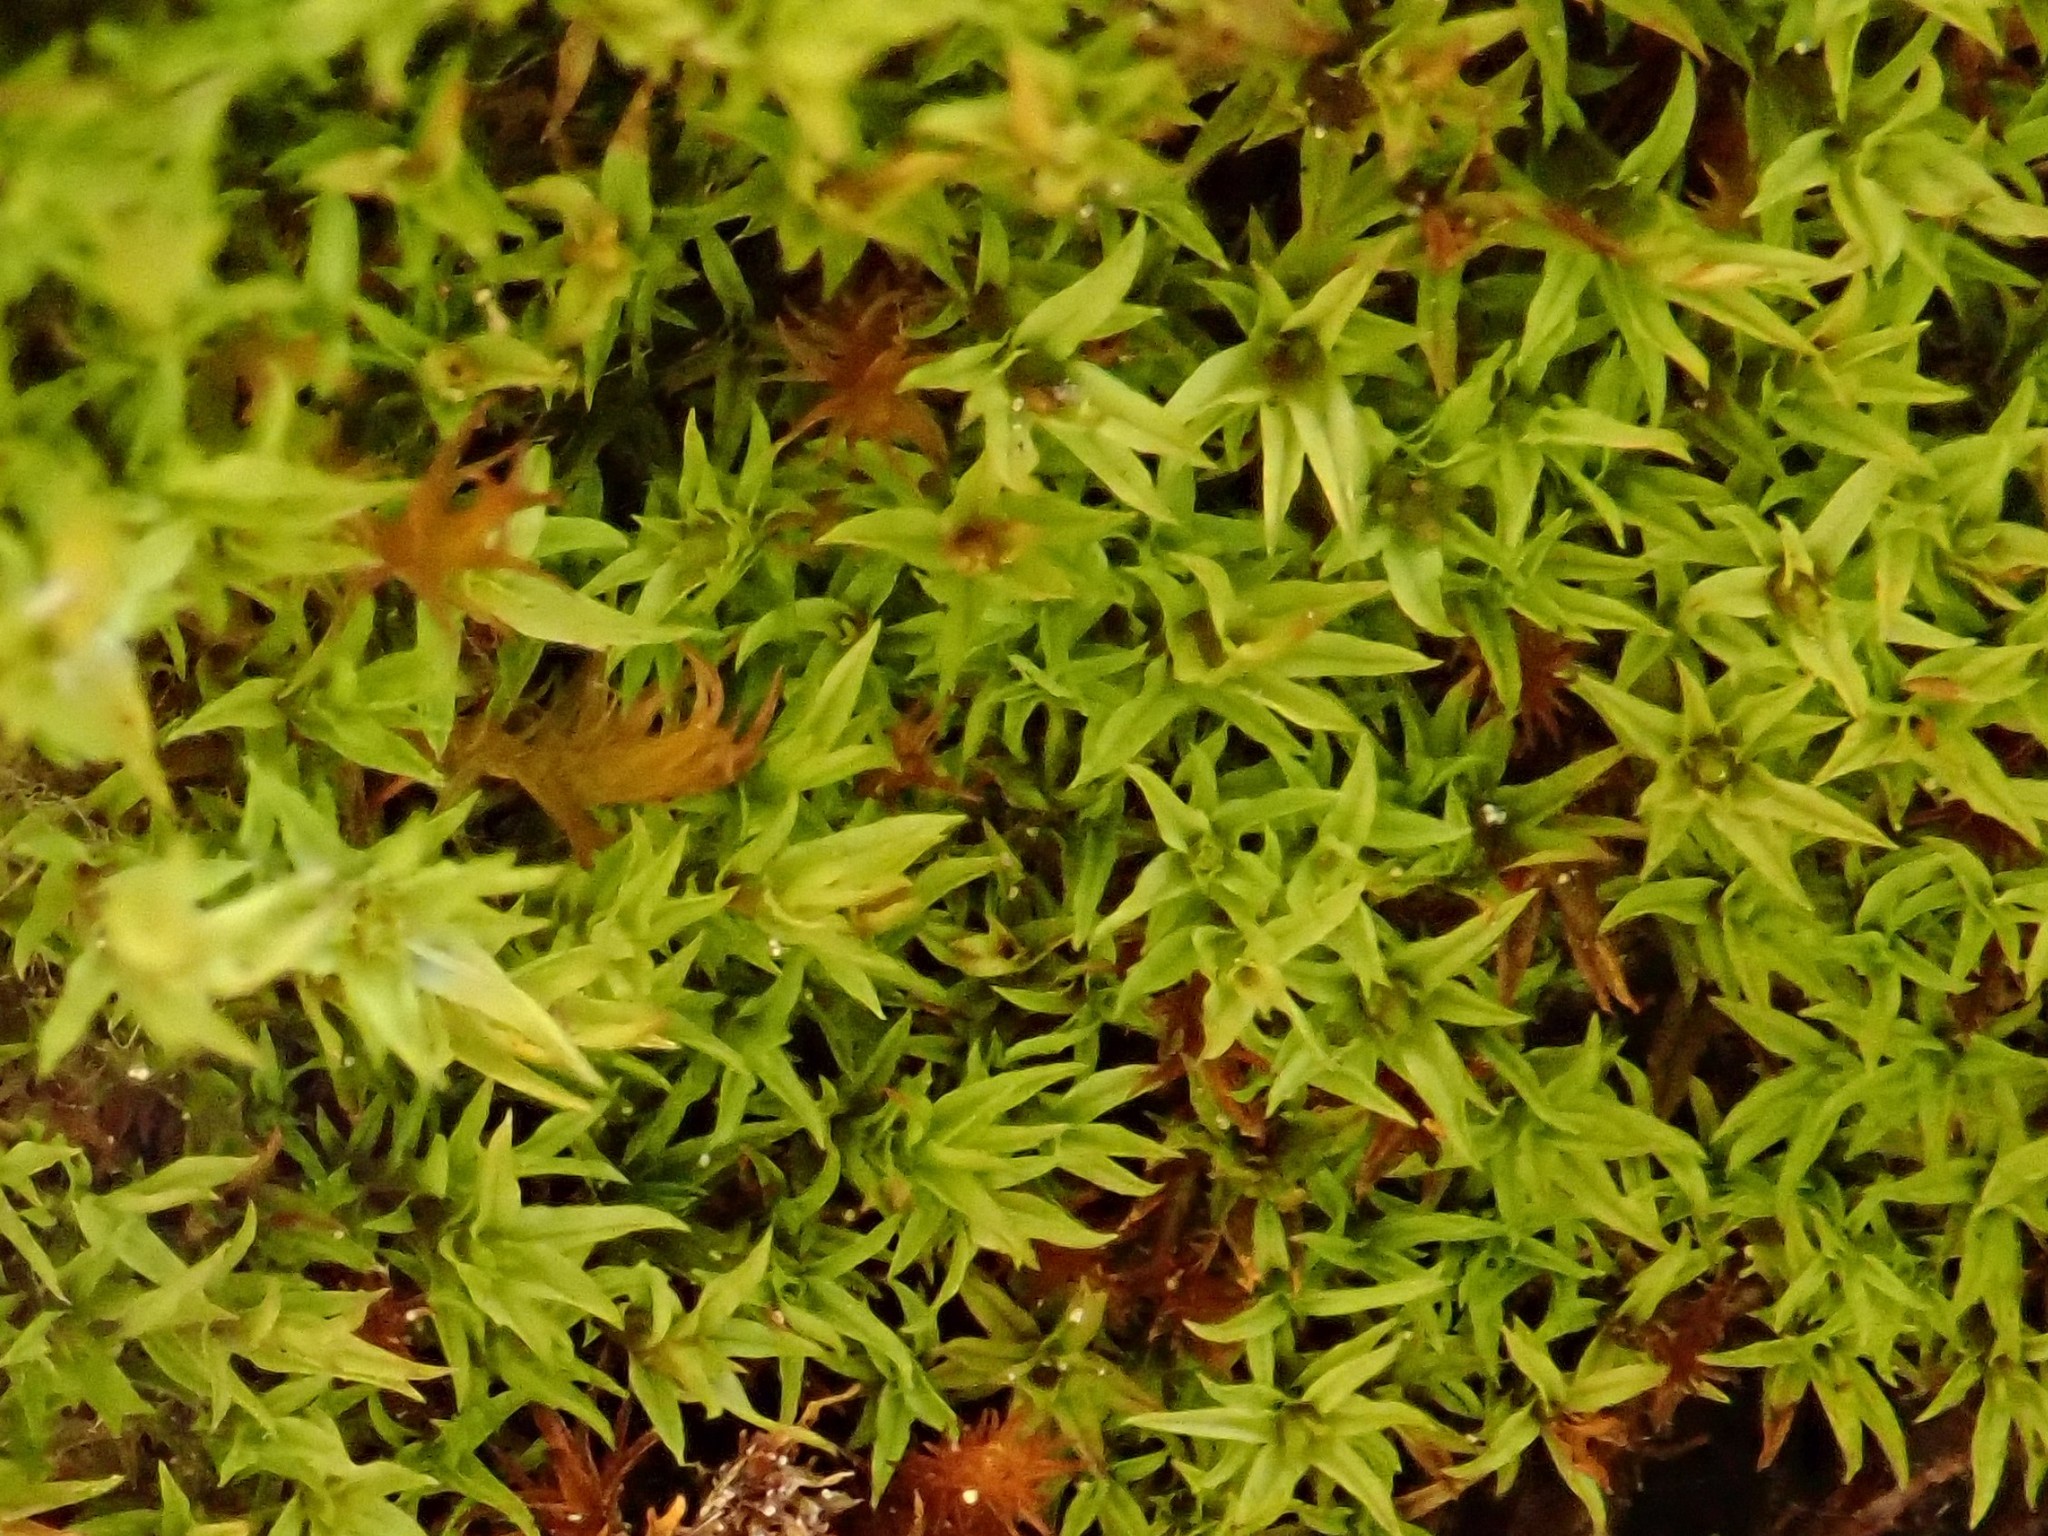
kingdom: Plantae
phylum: Bryophyta
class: Bryopsida
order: Pottiales
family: Pottiaceae
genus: Hydrogonium
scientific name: Hydrogonium croceum
